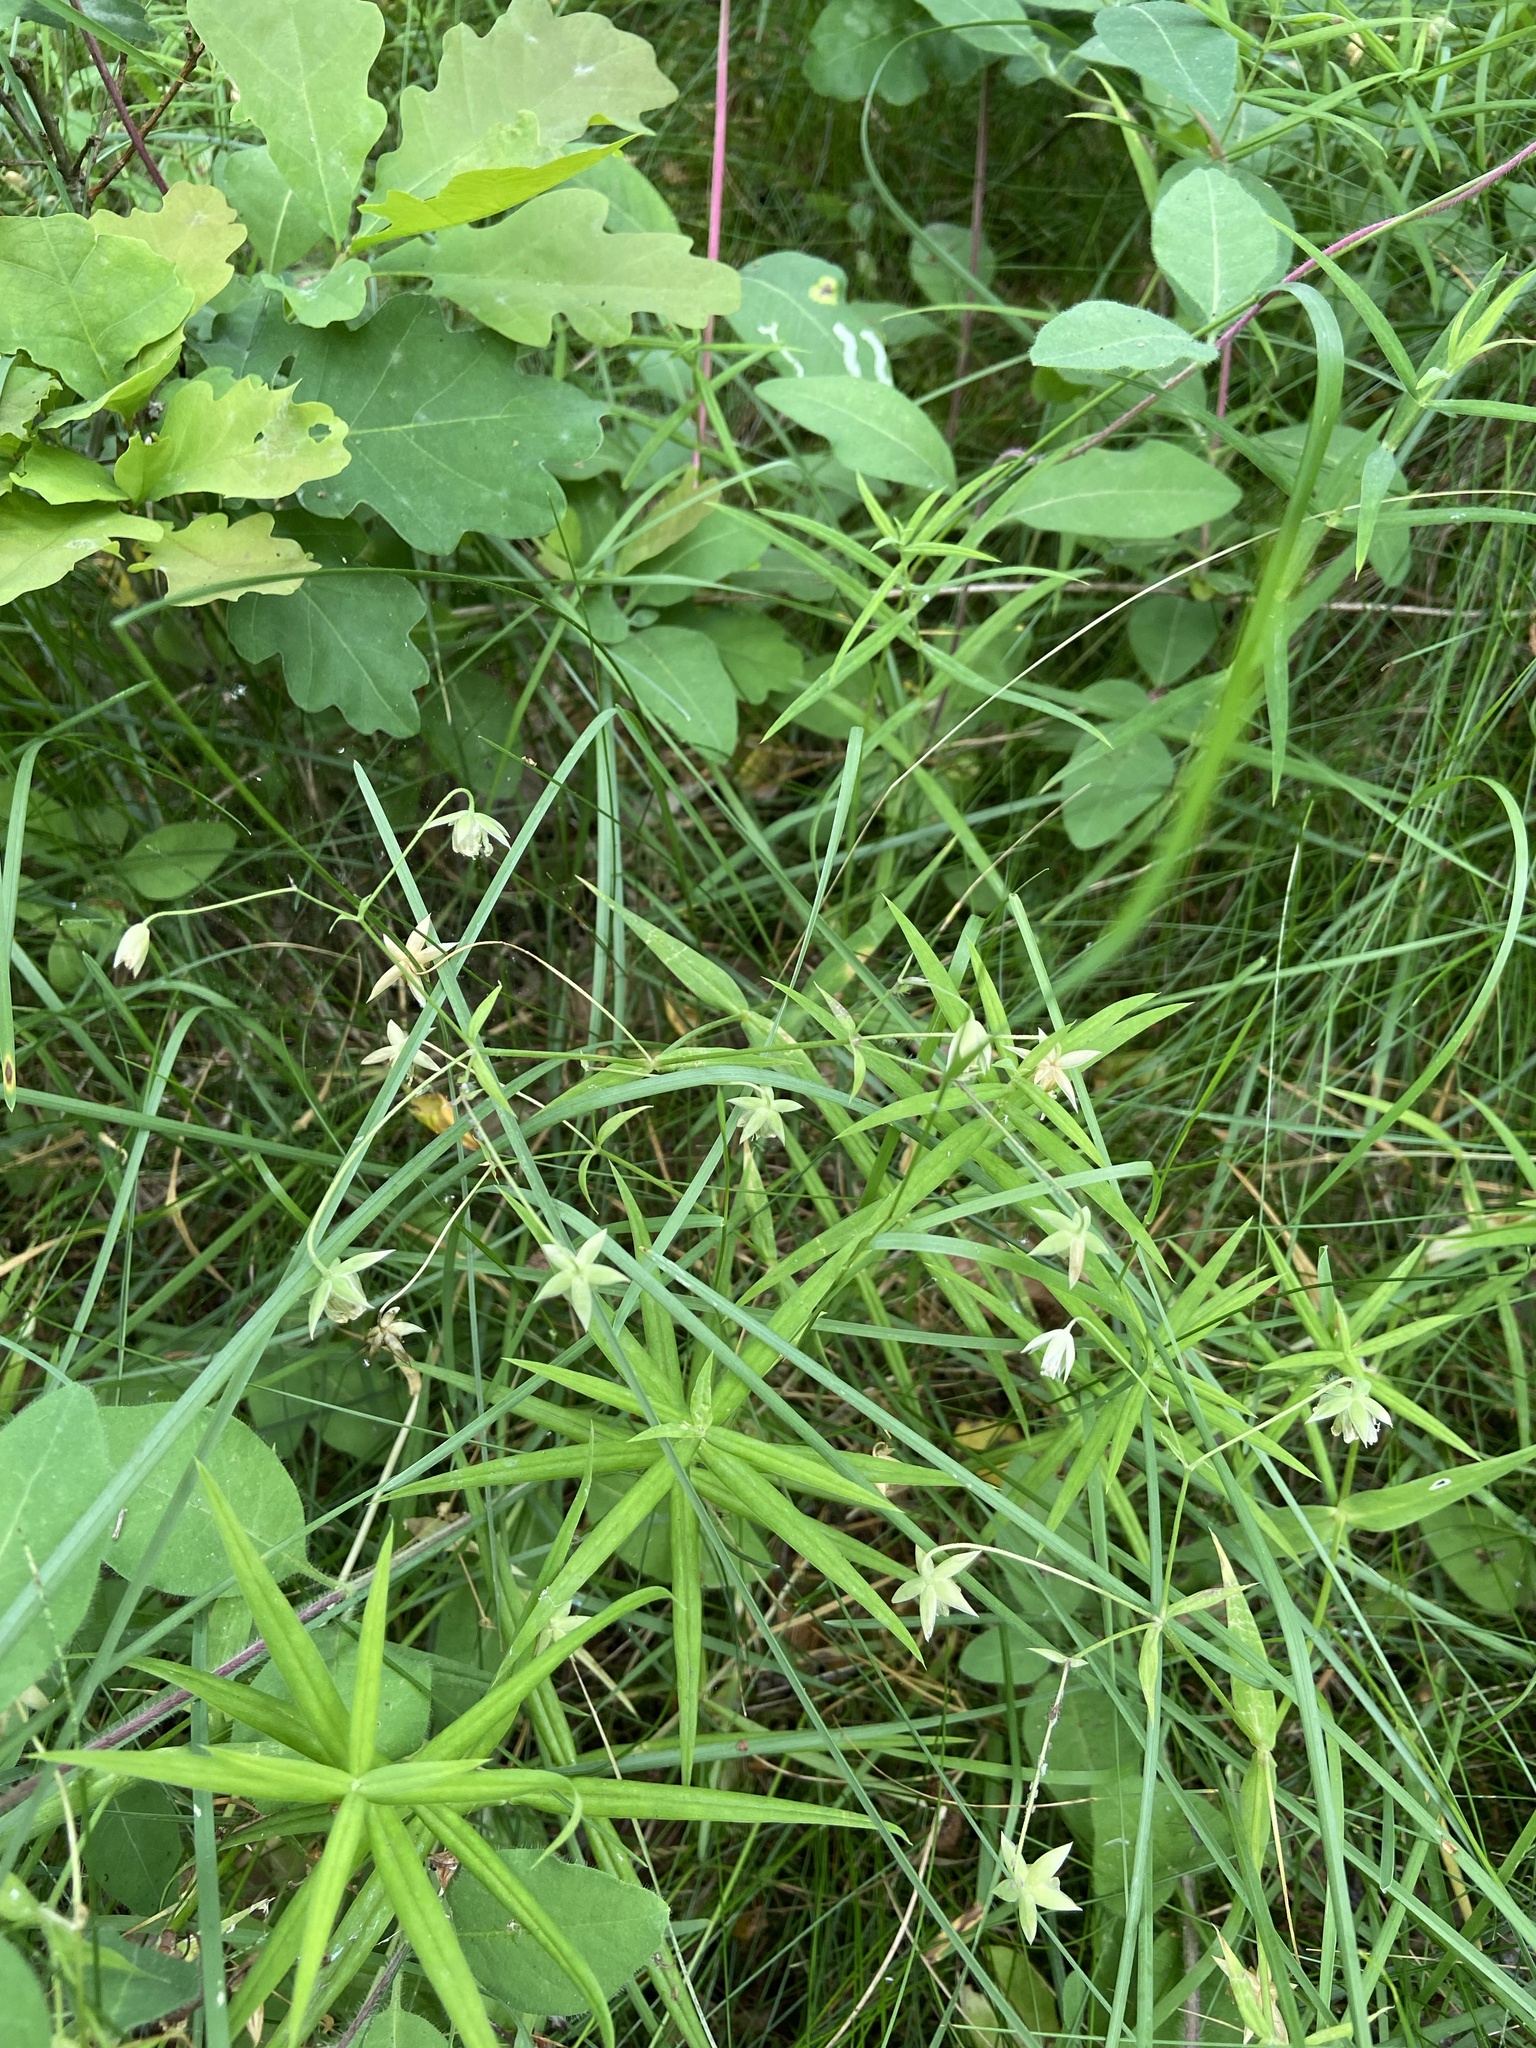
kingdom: Plantae
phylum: Tracheophyta
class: Magnoliopsida
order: Caryophyllales
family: Caryophyllaceae
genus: Rabelera
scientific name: Rabelera holostea
